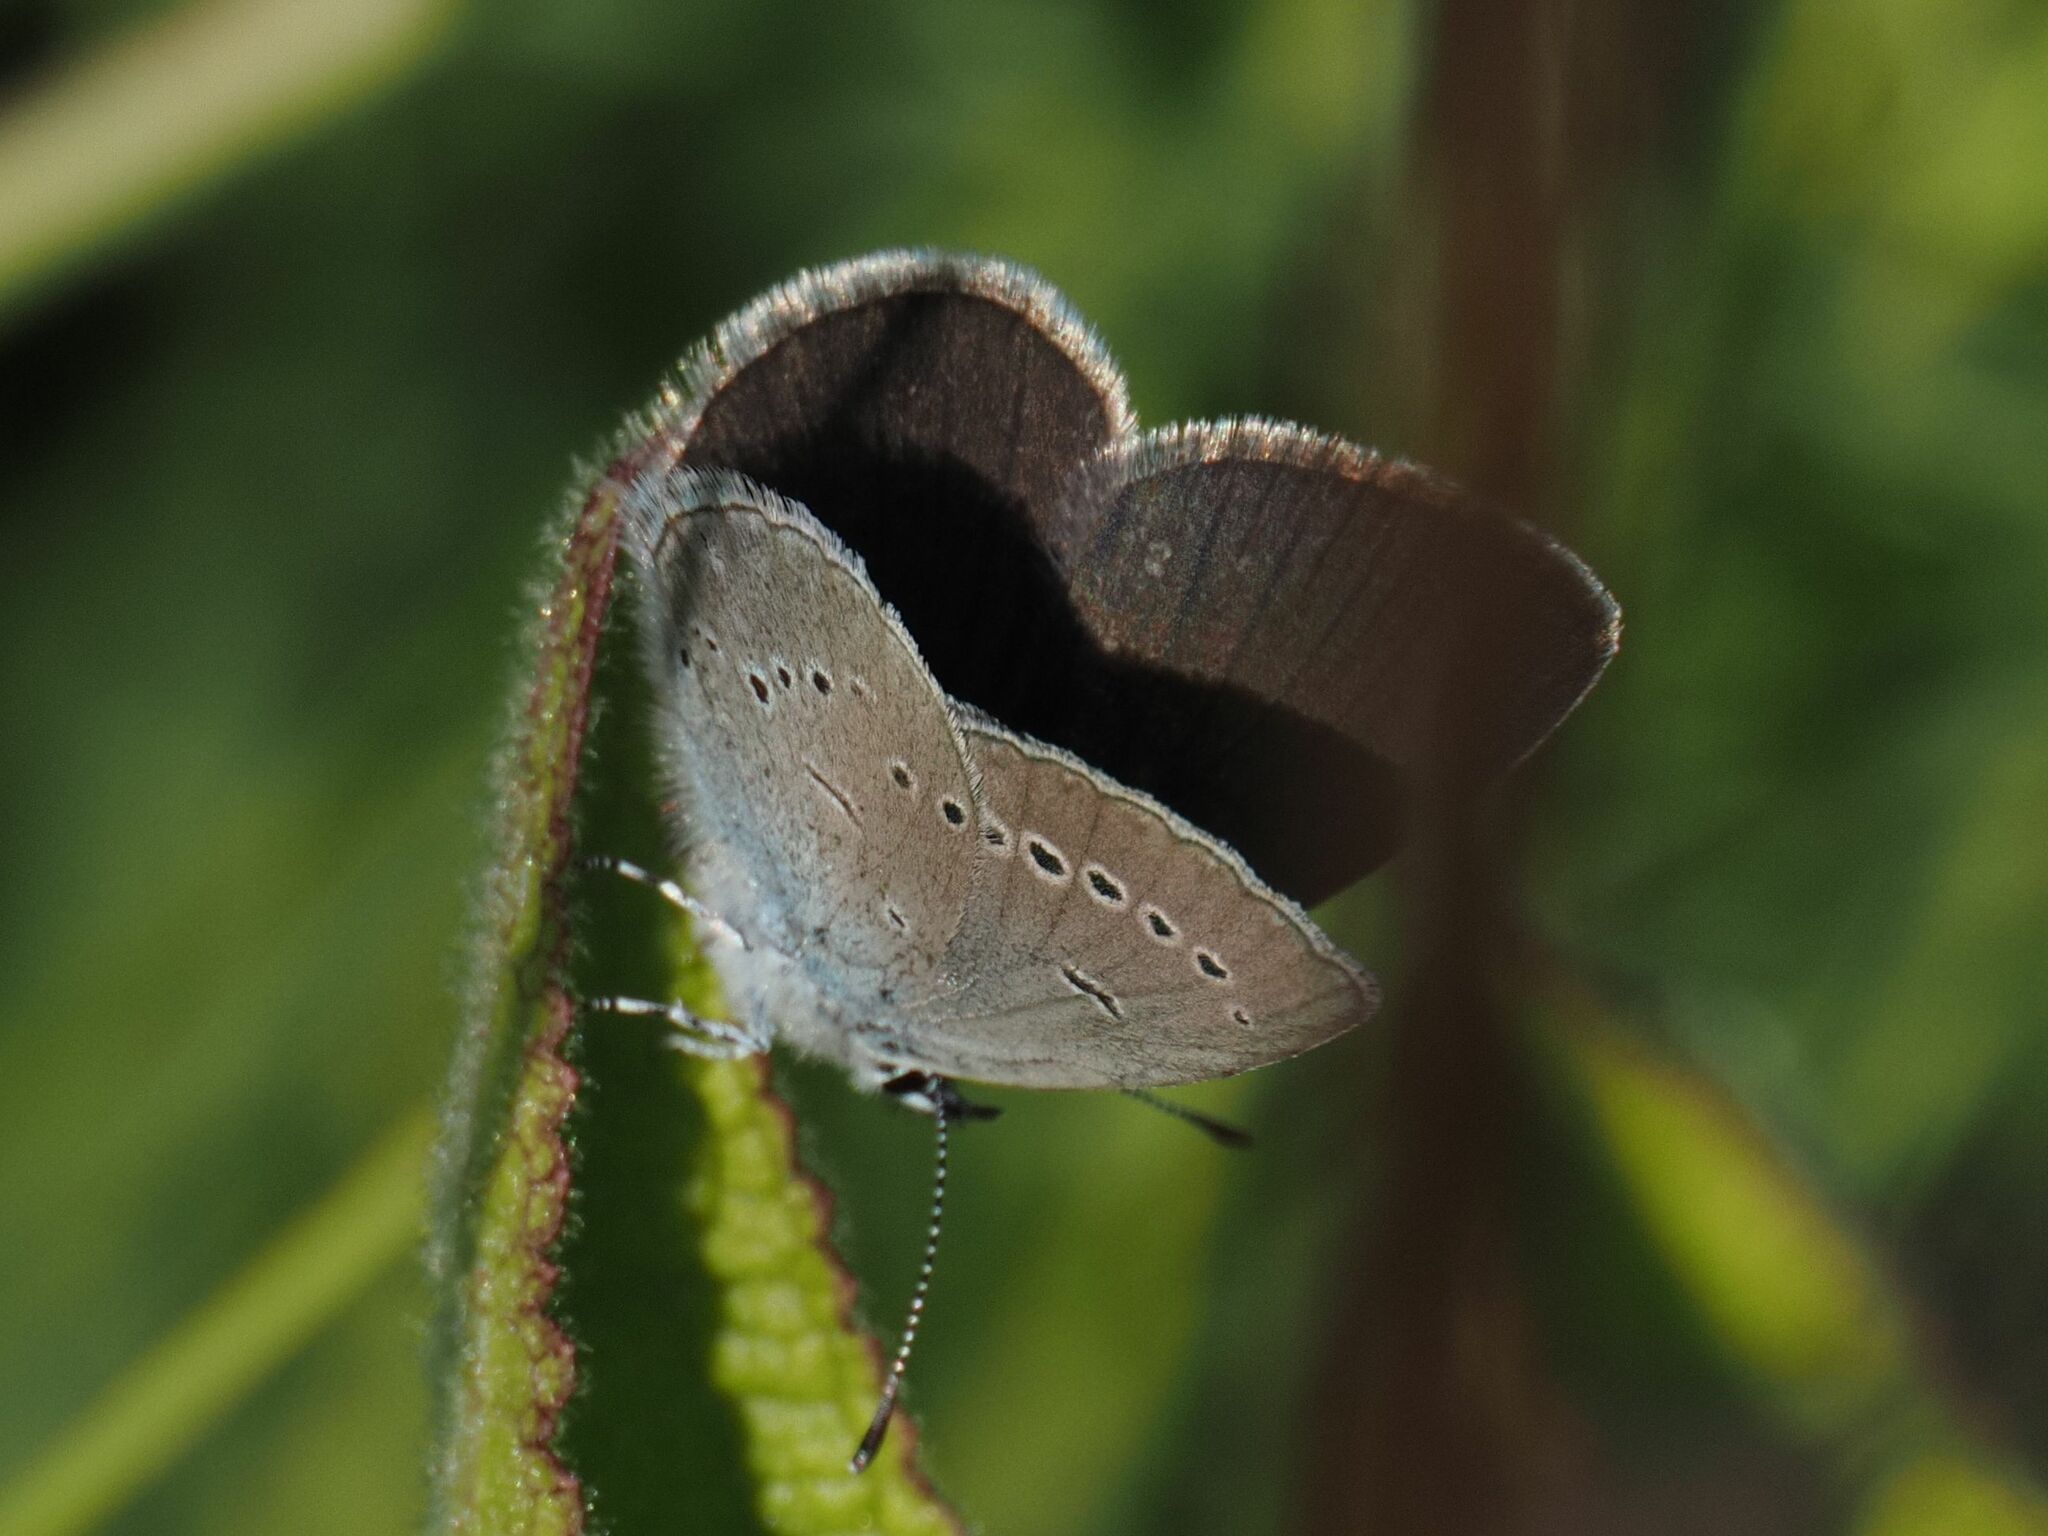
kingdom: Animalia
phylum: Arthropoda
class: Insecta
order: Lepidoptera
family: Lycaenidae
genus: Cupido
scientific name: Cupido minimus
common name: Small blue
